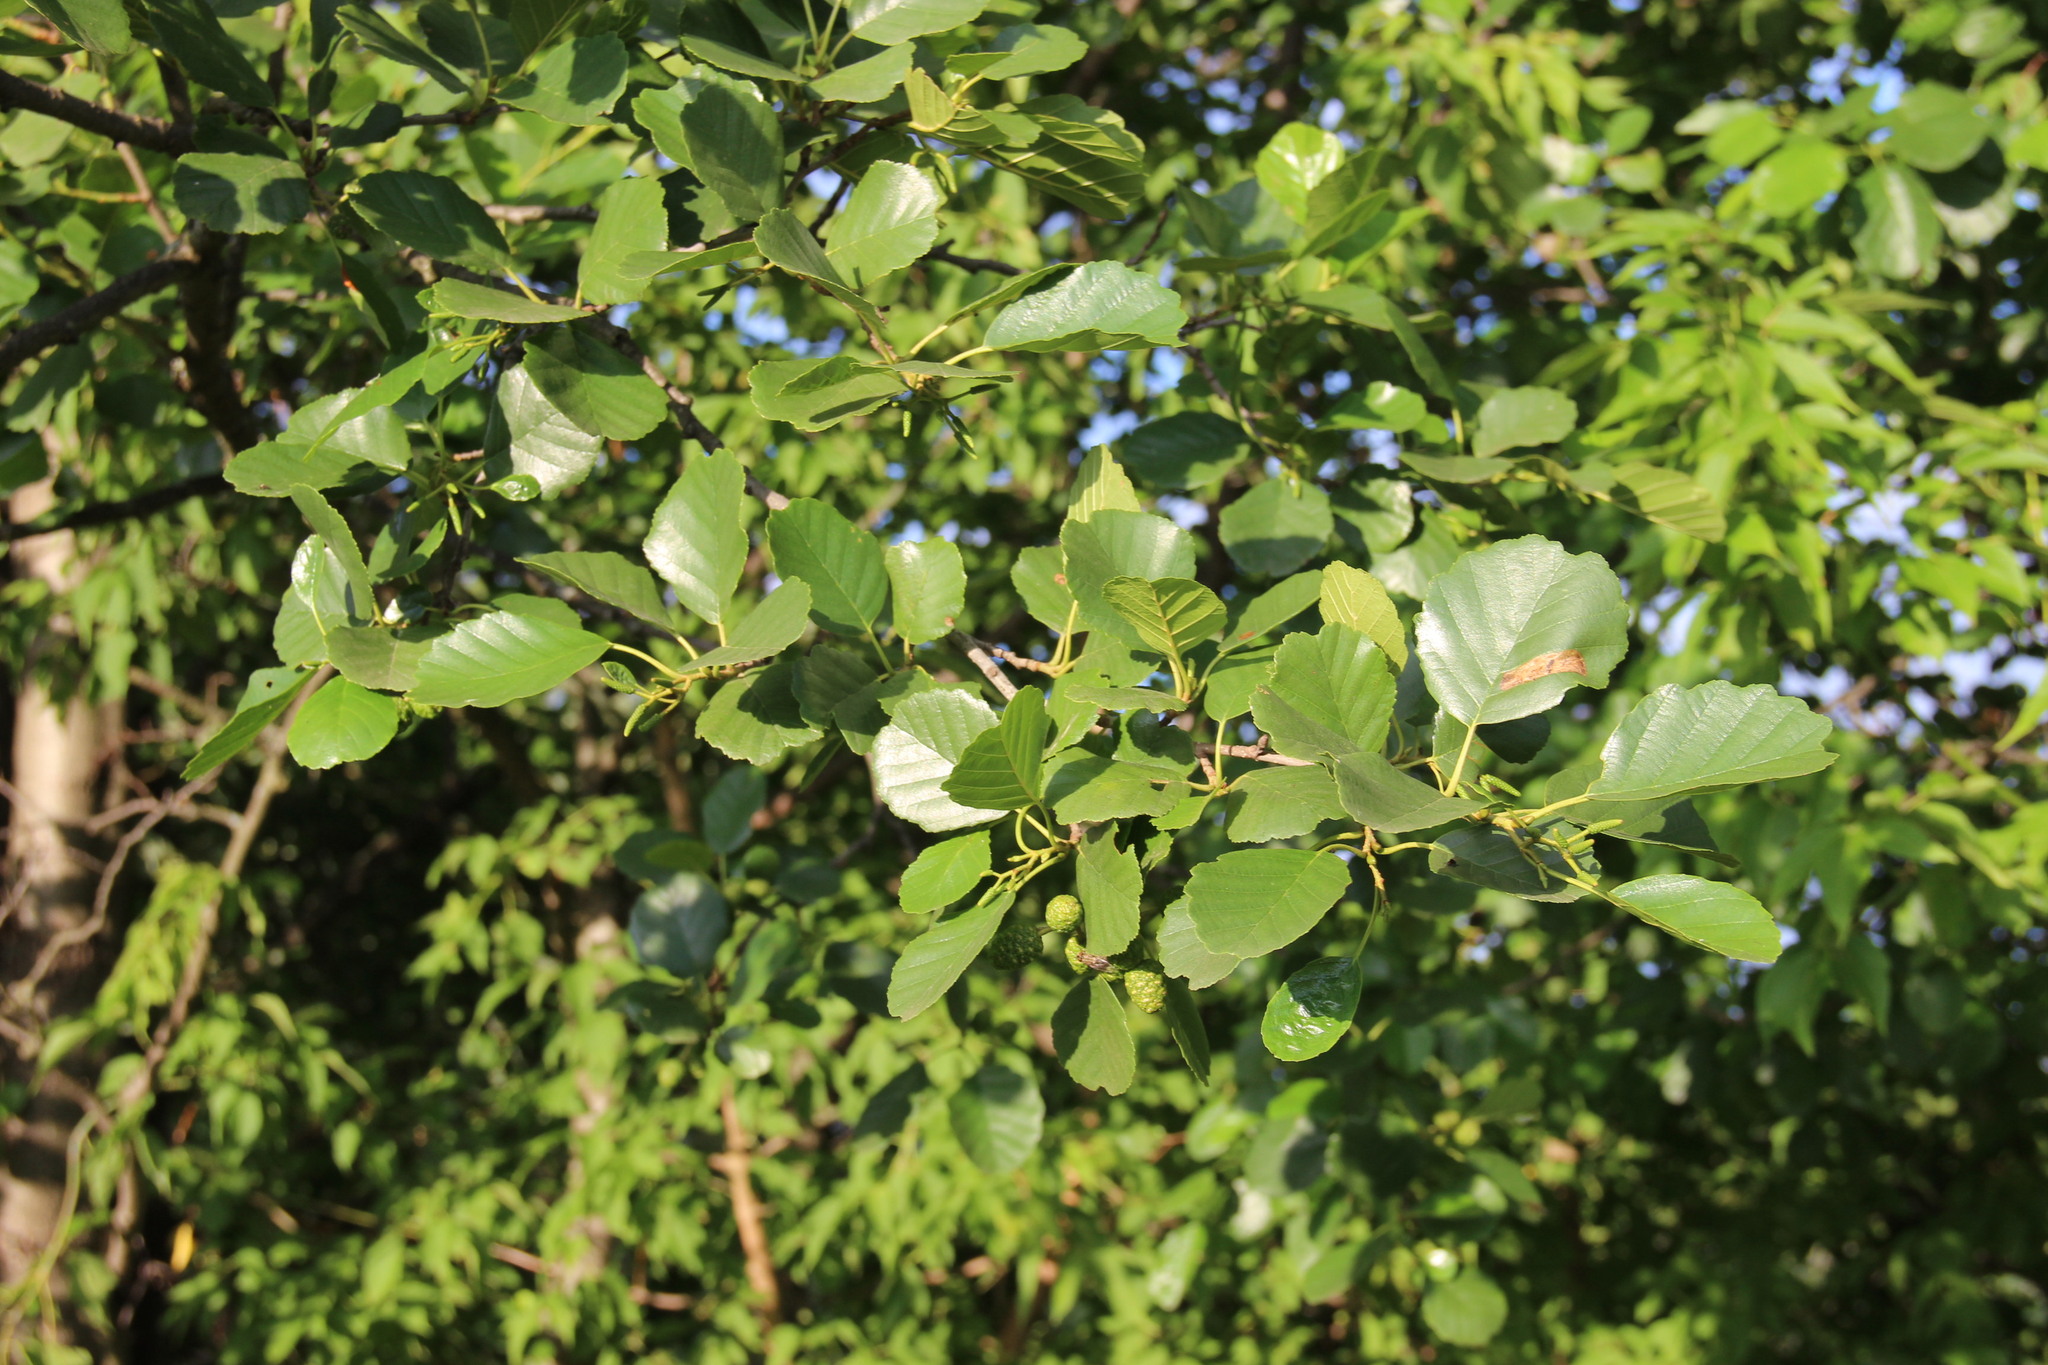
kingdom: Plantae
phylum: Tracheophyta
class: Magnoliopsida
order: Fagales
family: Betulaceae
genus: Alnus
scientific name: Alnus glutinosa
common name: Black alder
